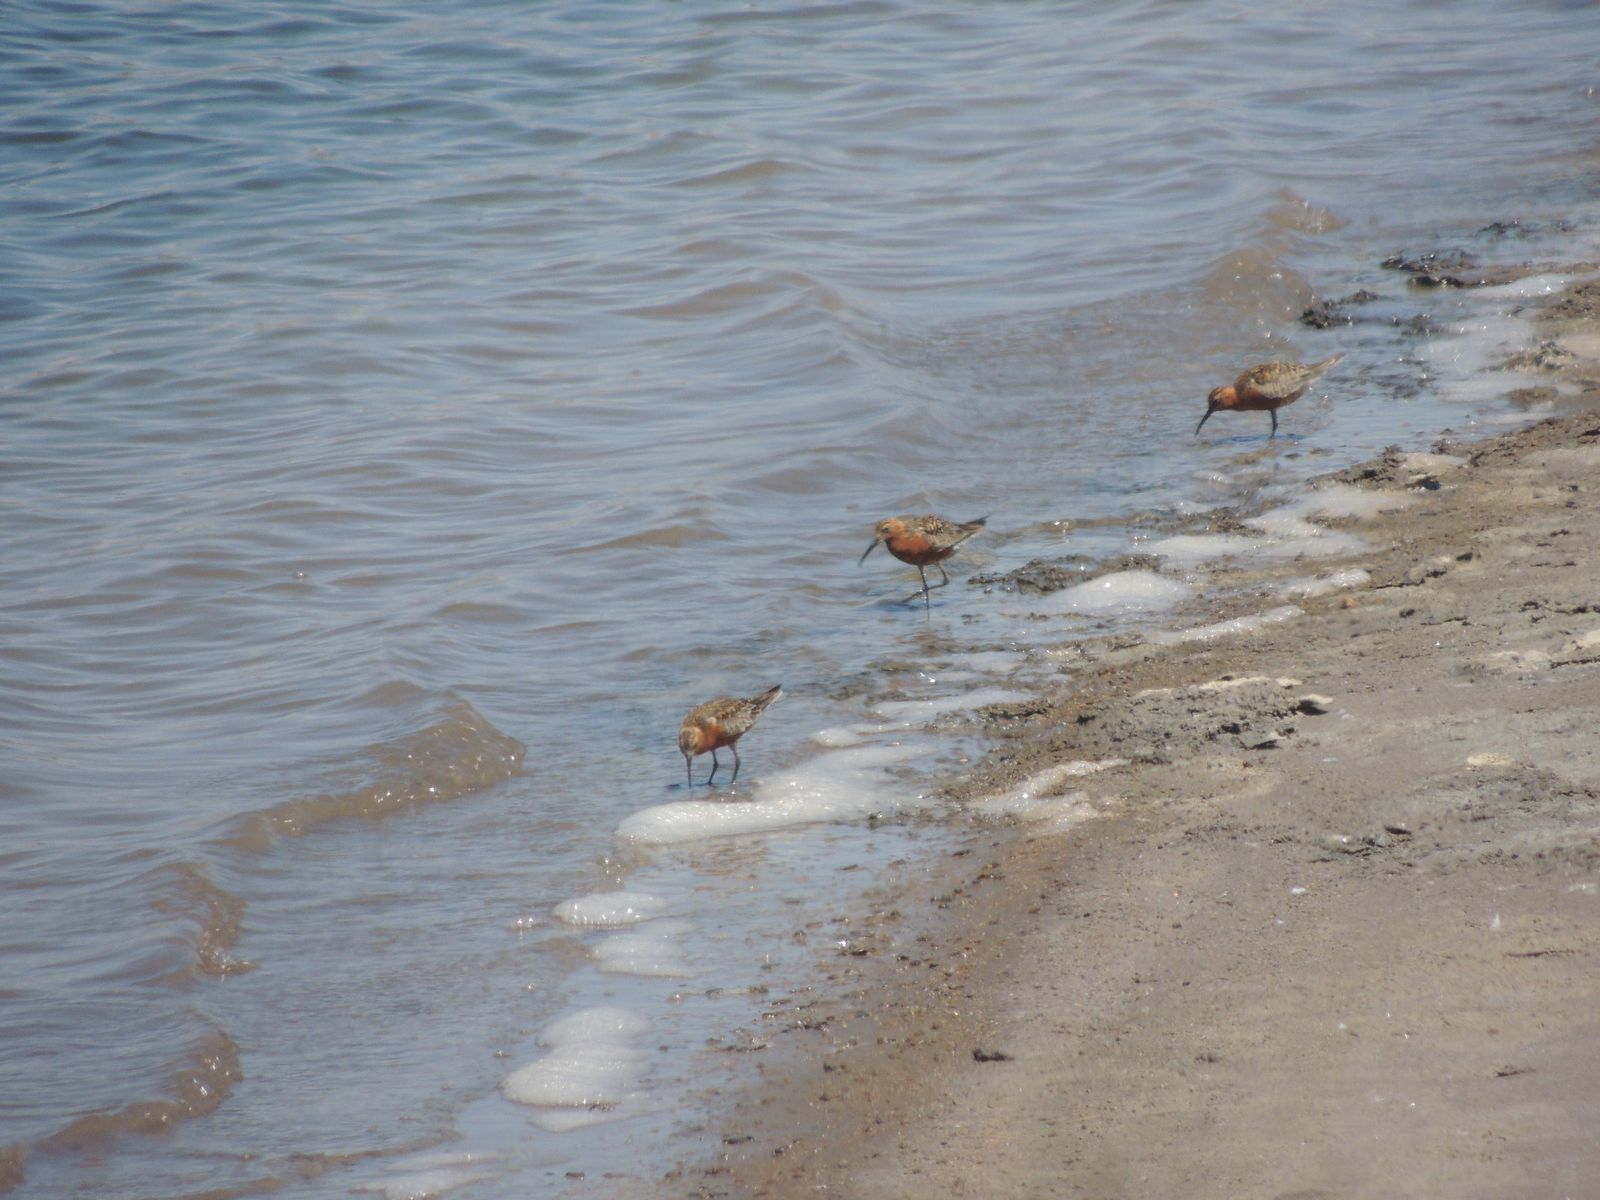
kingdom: Animalia
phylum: Chordata
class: Aves
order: Charadriiformes
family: Scolopacidae
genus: Calidris
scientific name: Calidris ferruginea
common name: Curlew sandpiper
